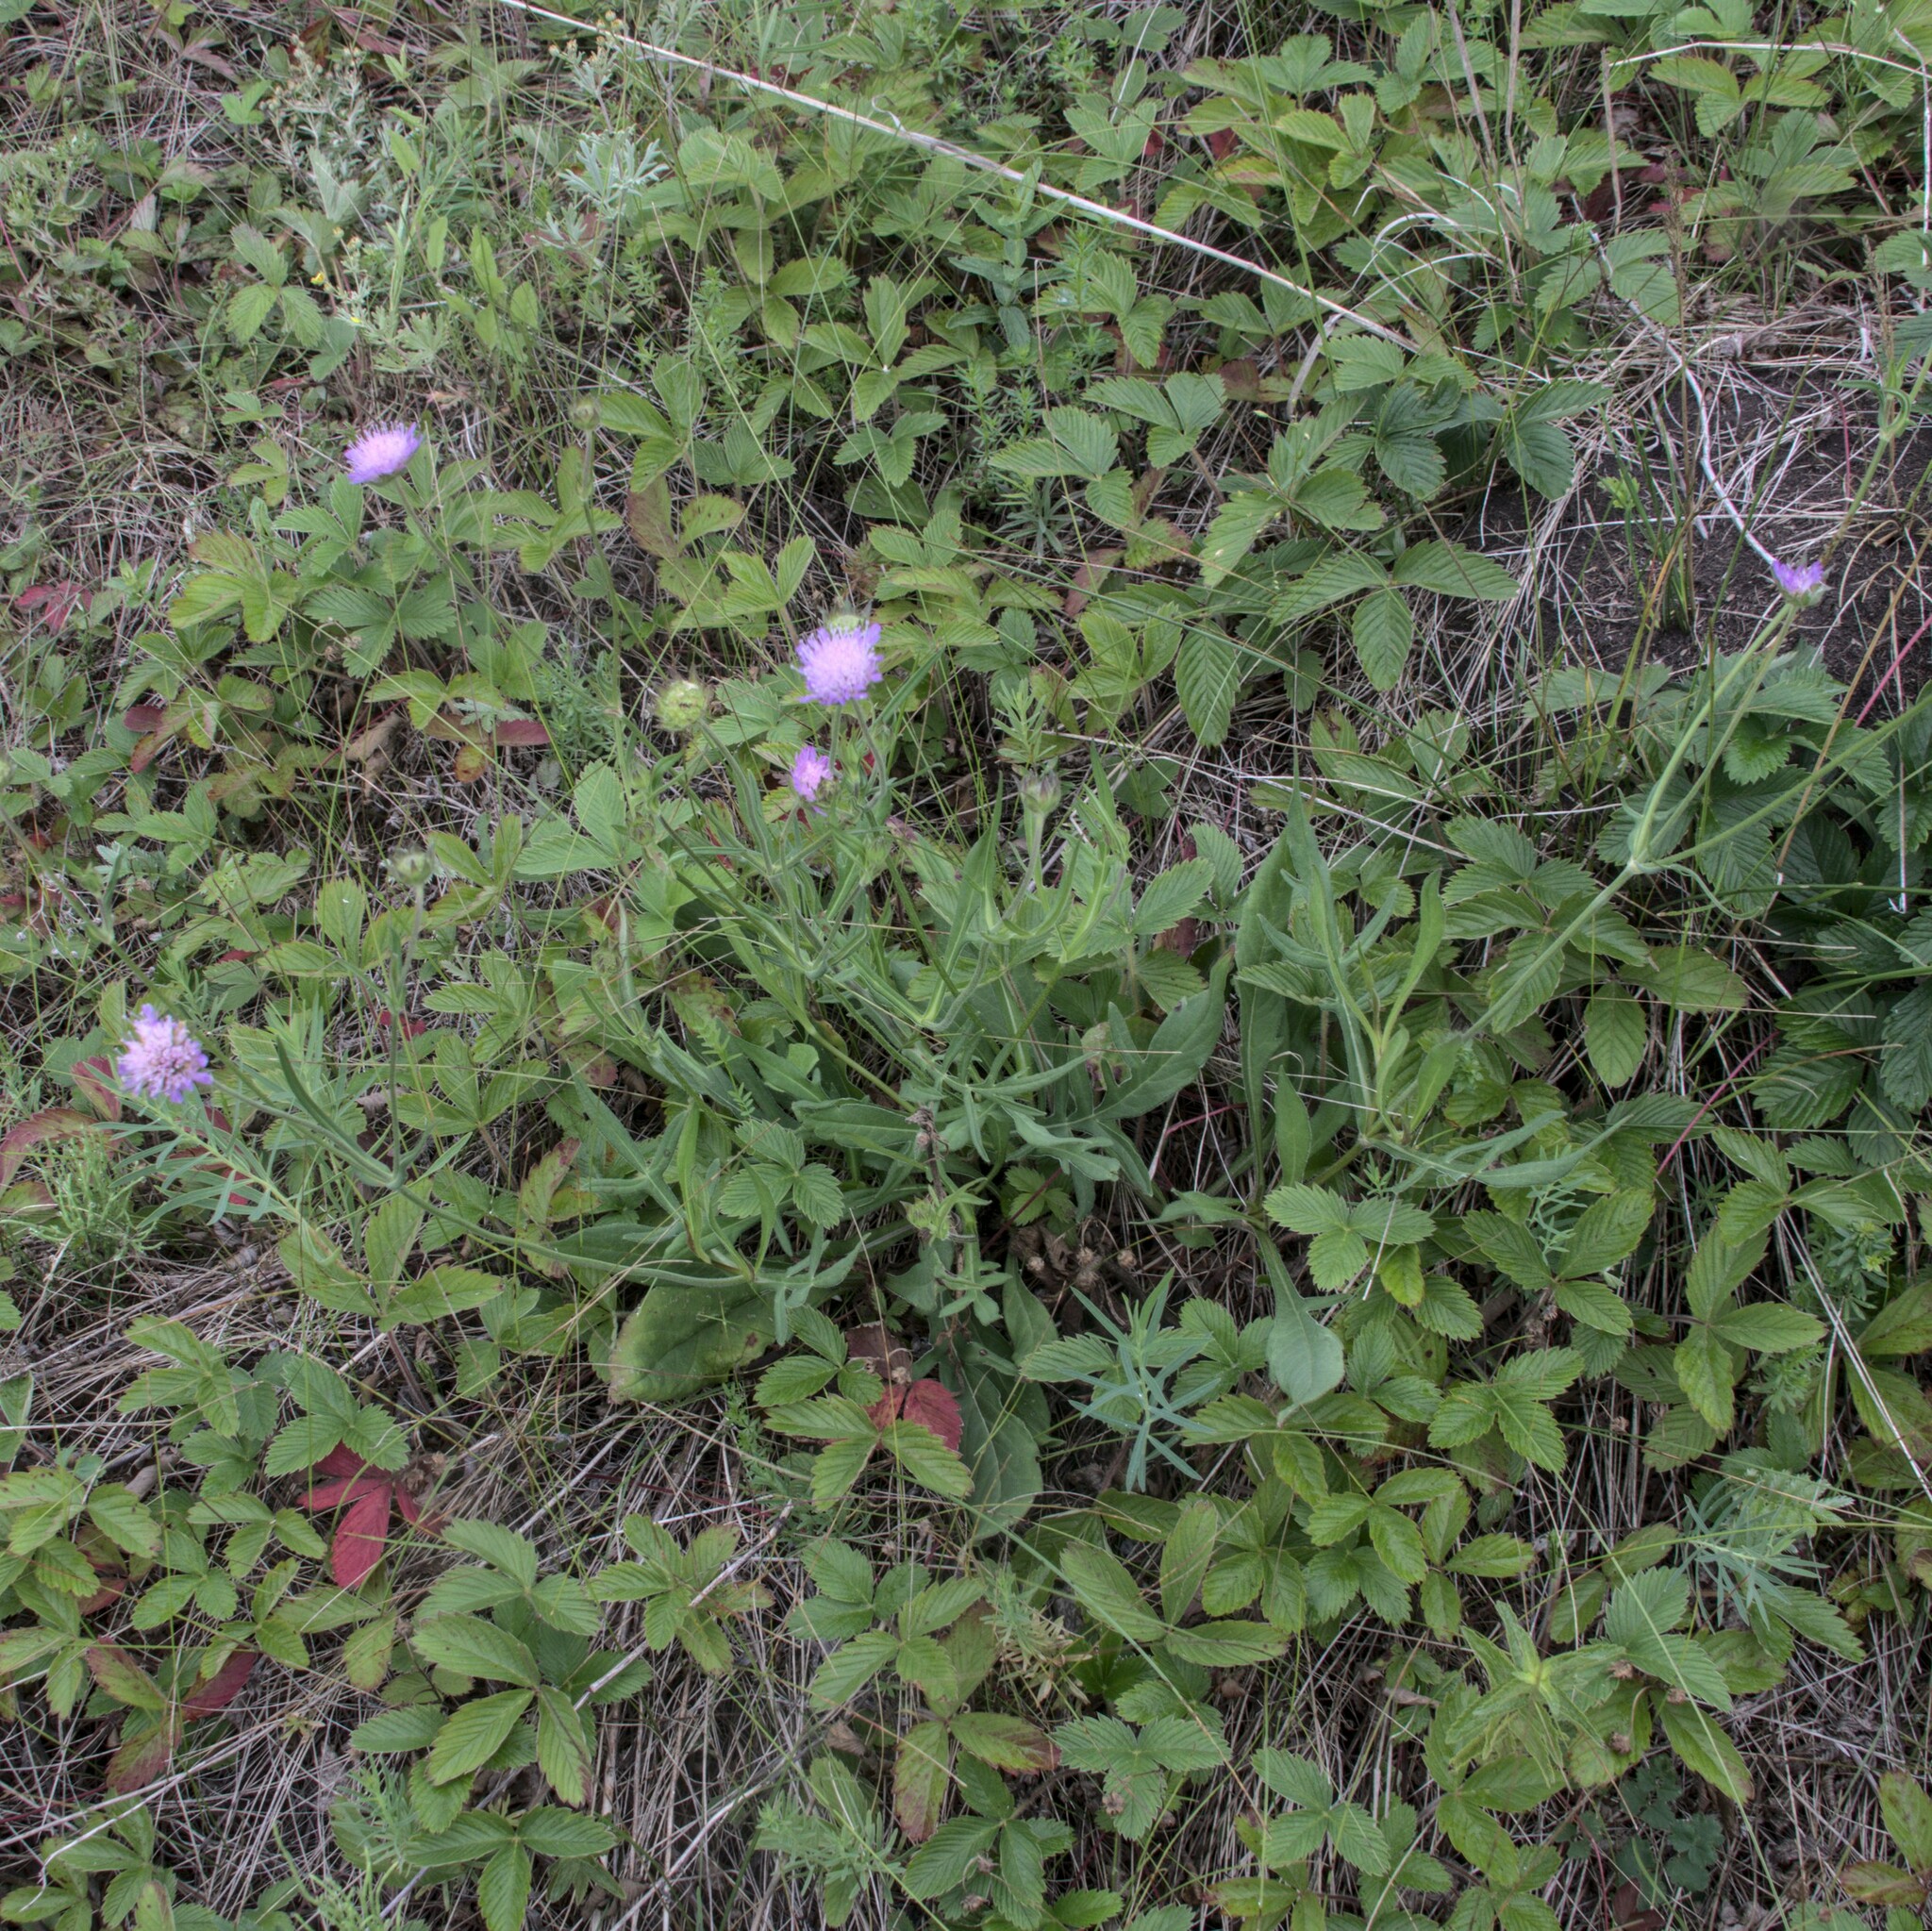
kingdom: Plantae
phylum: Tracheophyta
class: Magnoliopsida
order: Dipsacales
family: Caprifoliaceae
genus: Knautia
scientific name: Knautia arvensis
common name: Field scabiosa
